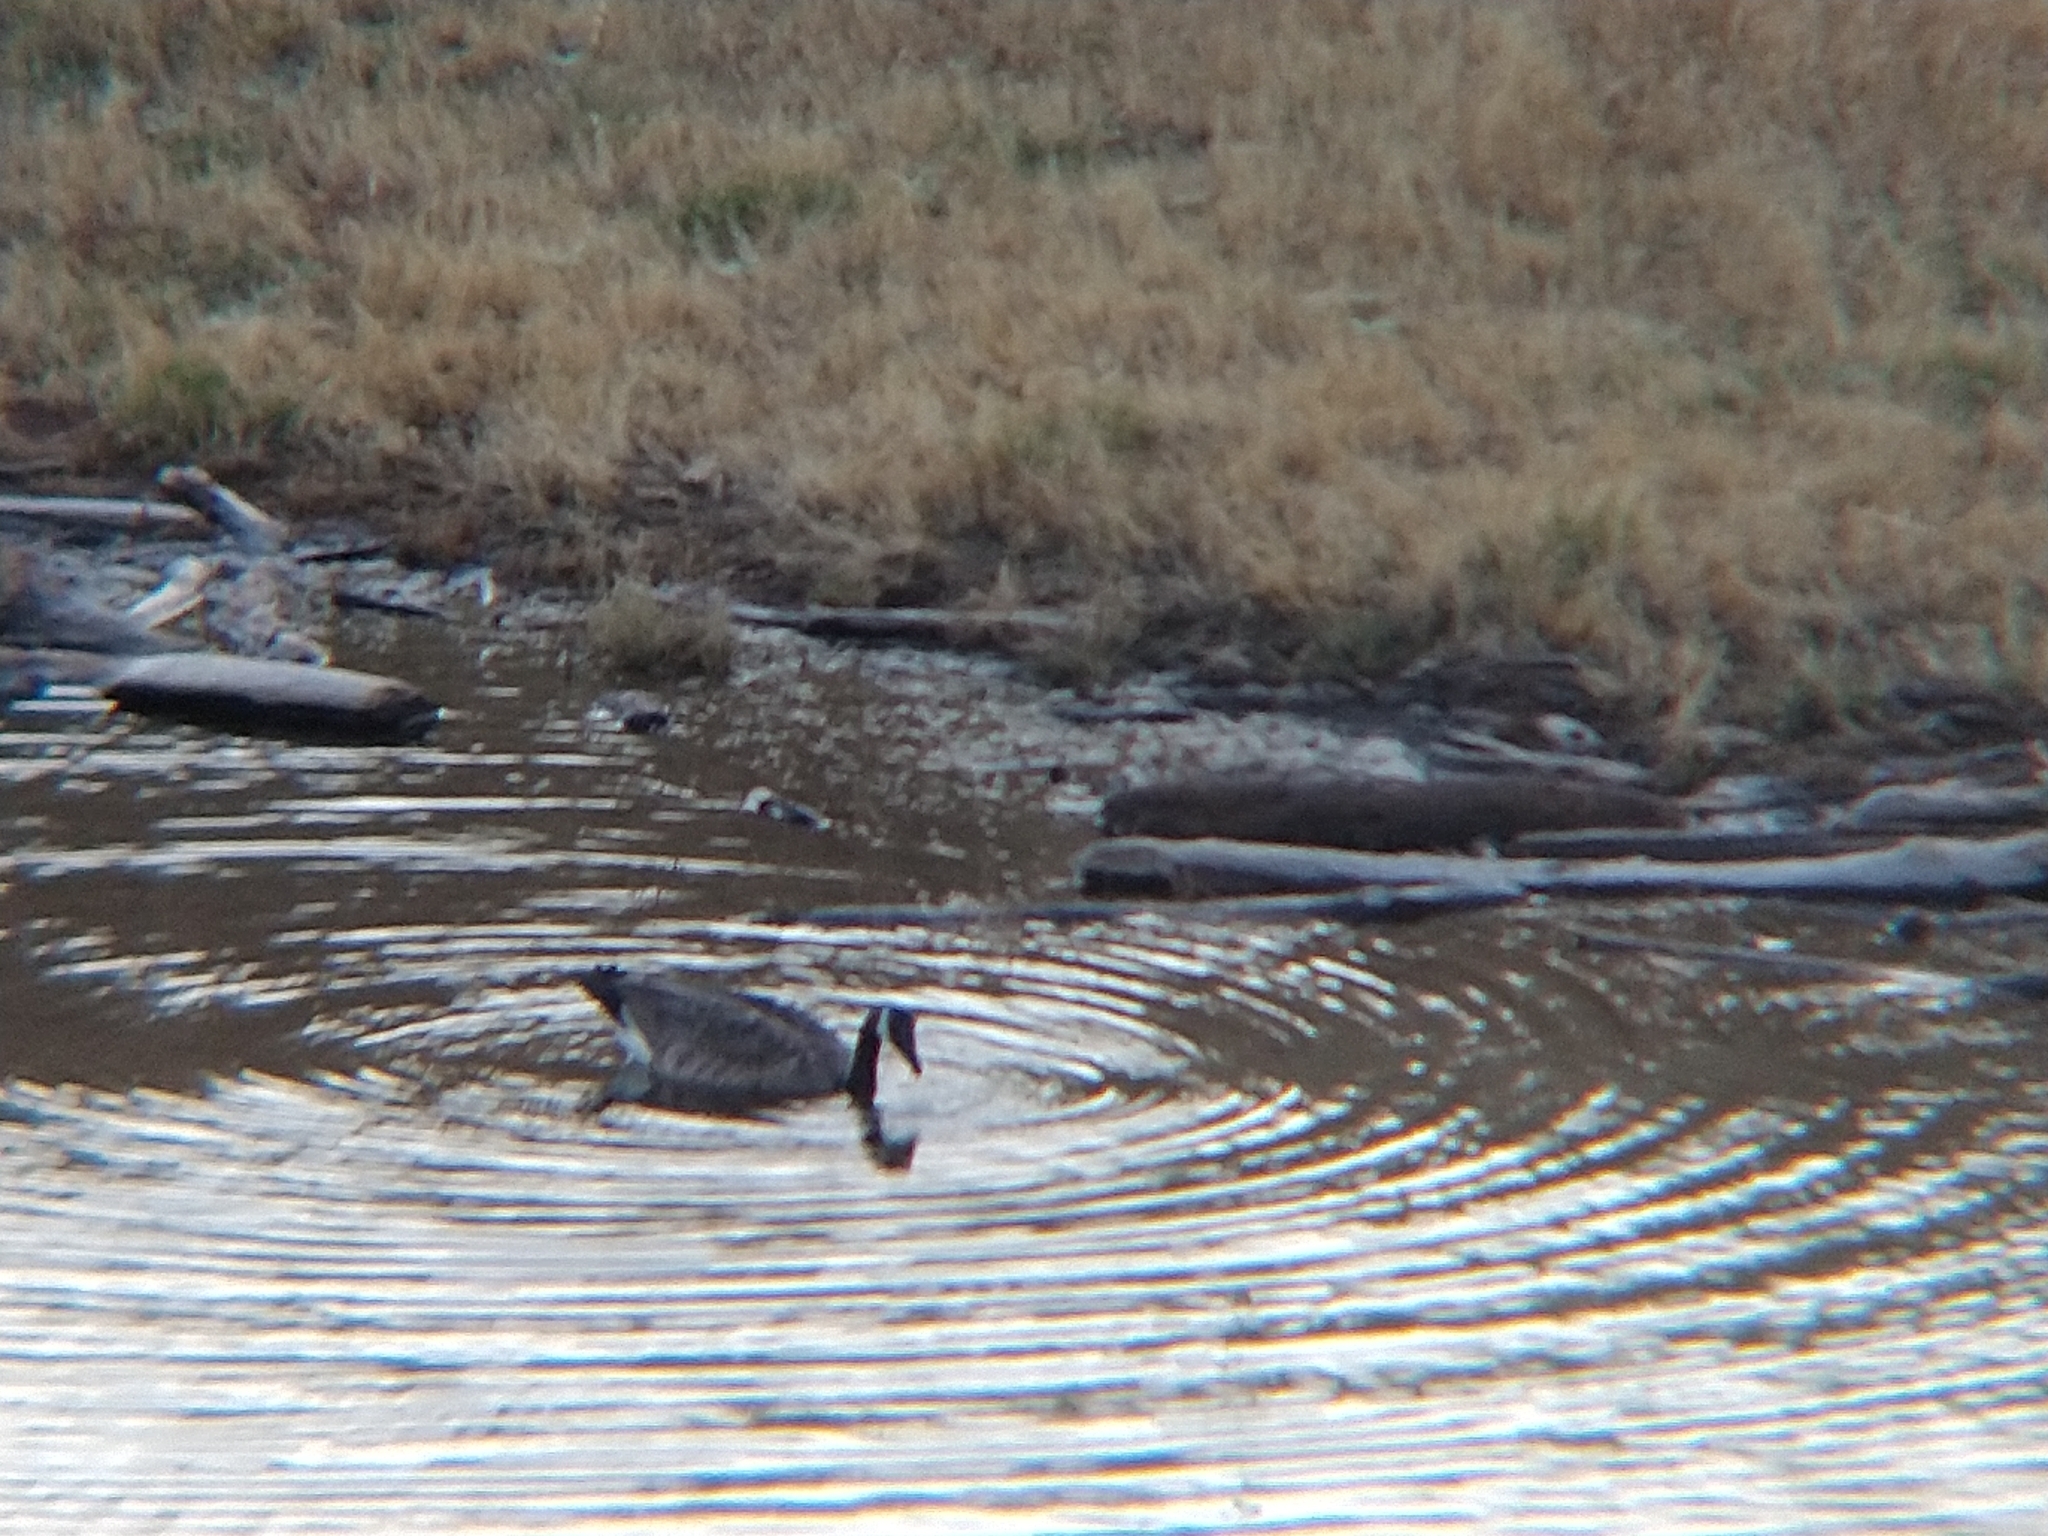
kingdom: Animalia
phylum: Chordata
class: Aves
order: Anseriformes
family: Anatidae
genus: Branta
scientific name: Branta canadensis
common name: Canada goose
